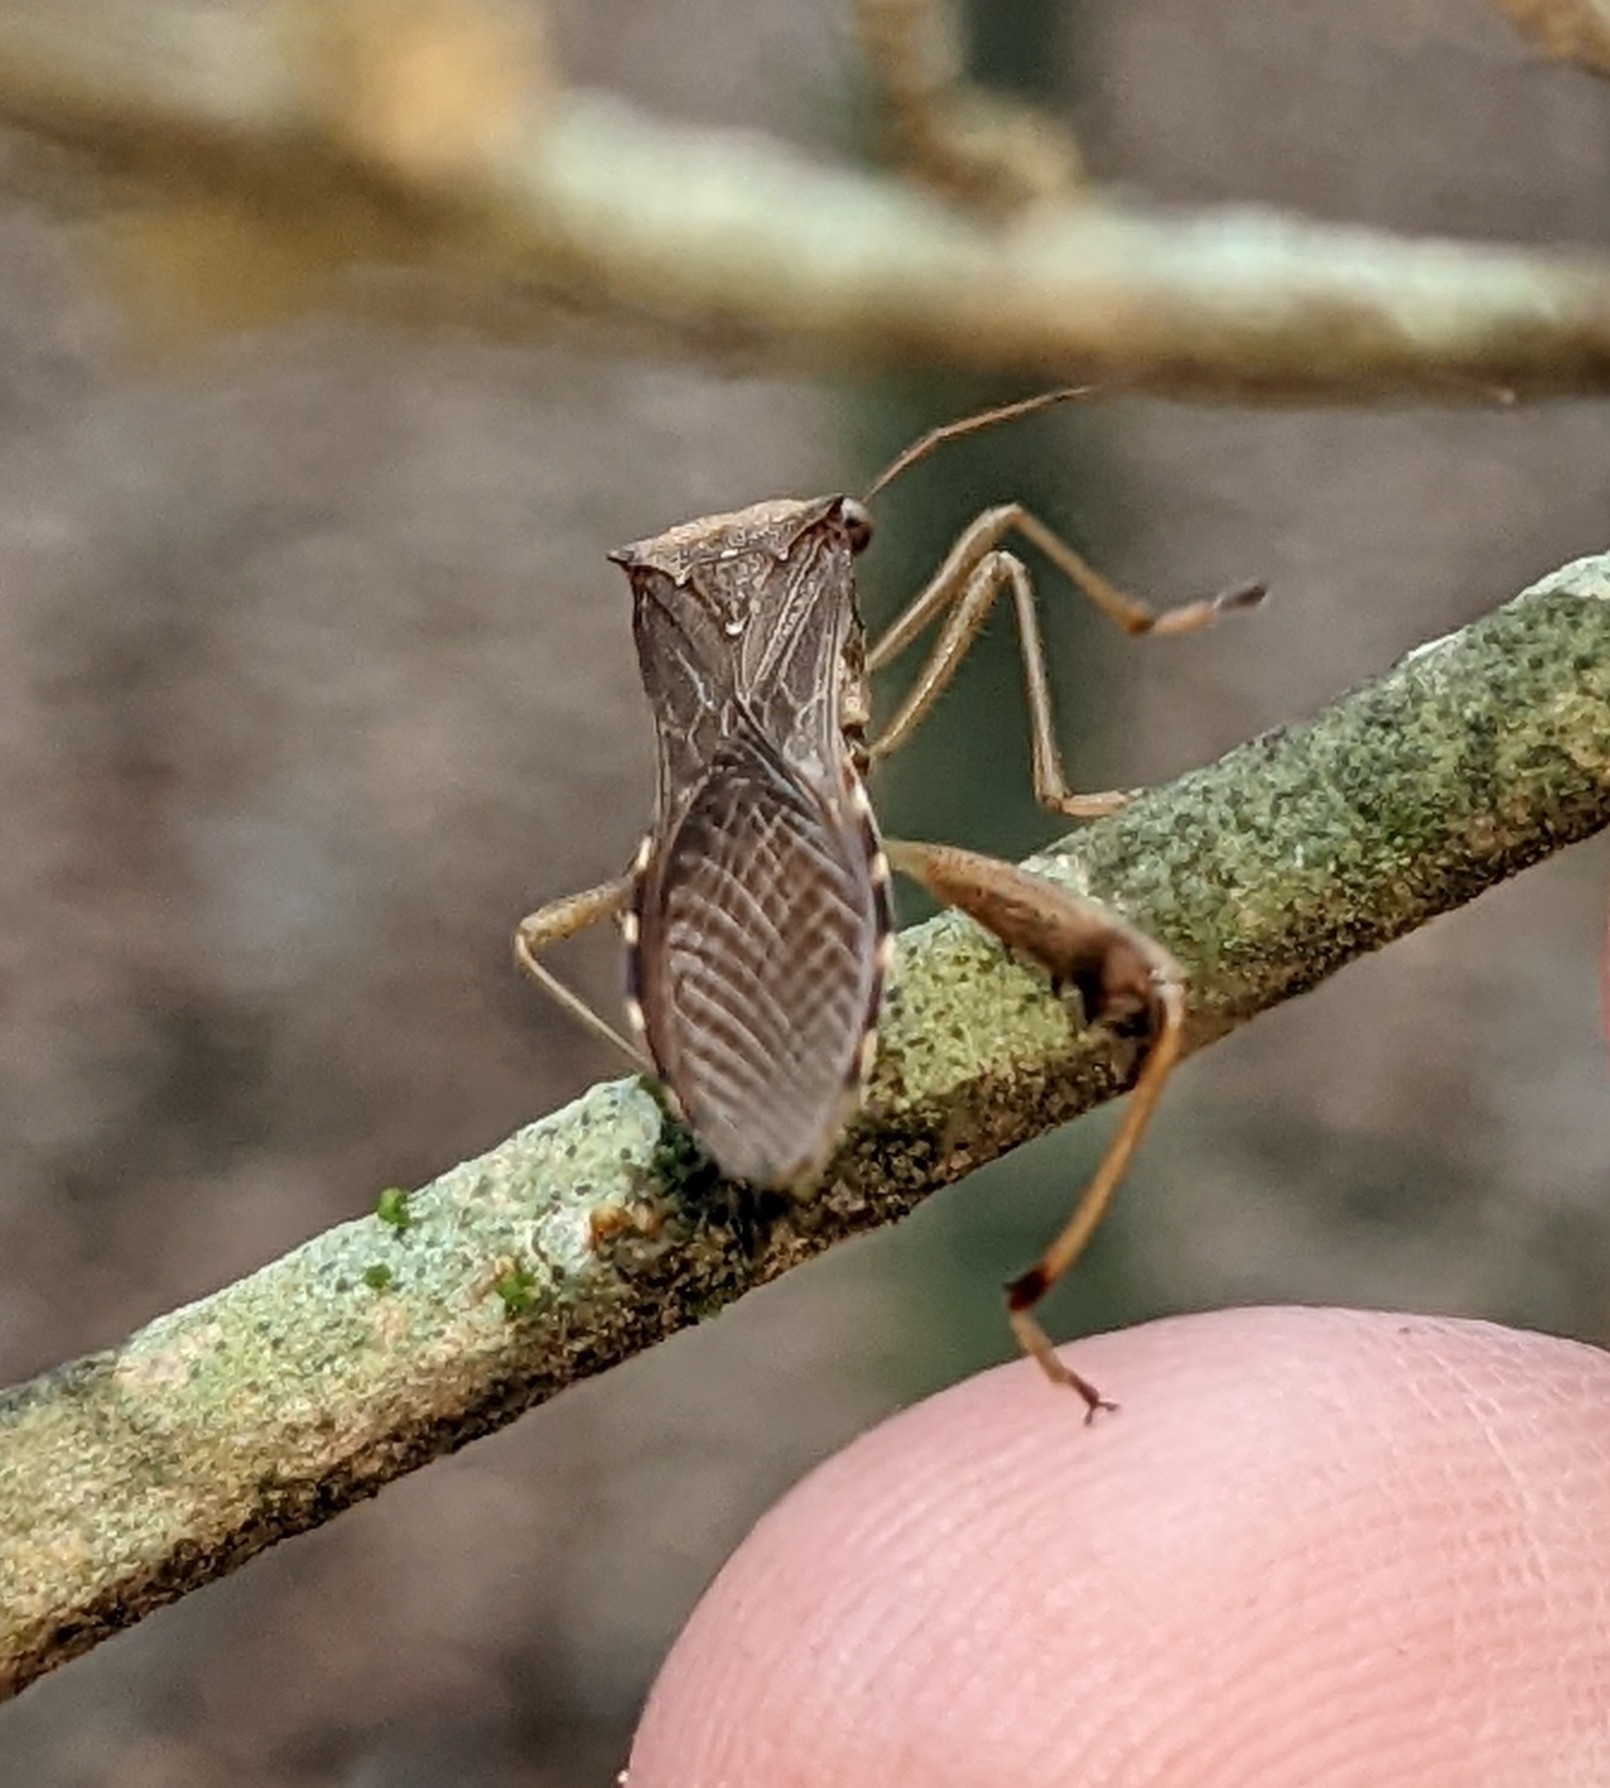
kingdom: Animalia
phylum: Arthropoda
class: Insecta
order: Hemiptera
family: Alydidae
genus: Hyalymenus
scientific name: Hyalymenus tarsatus
